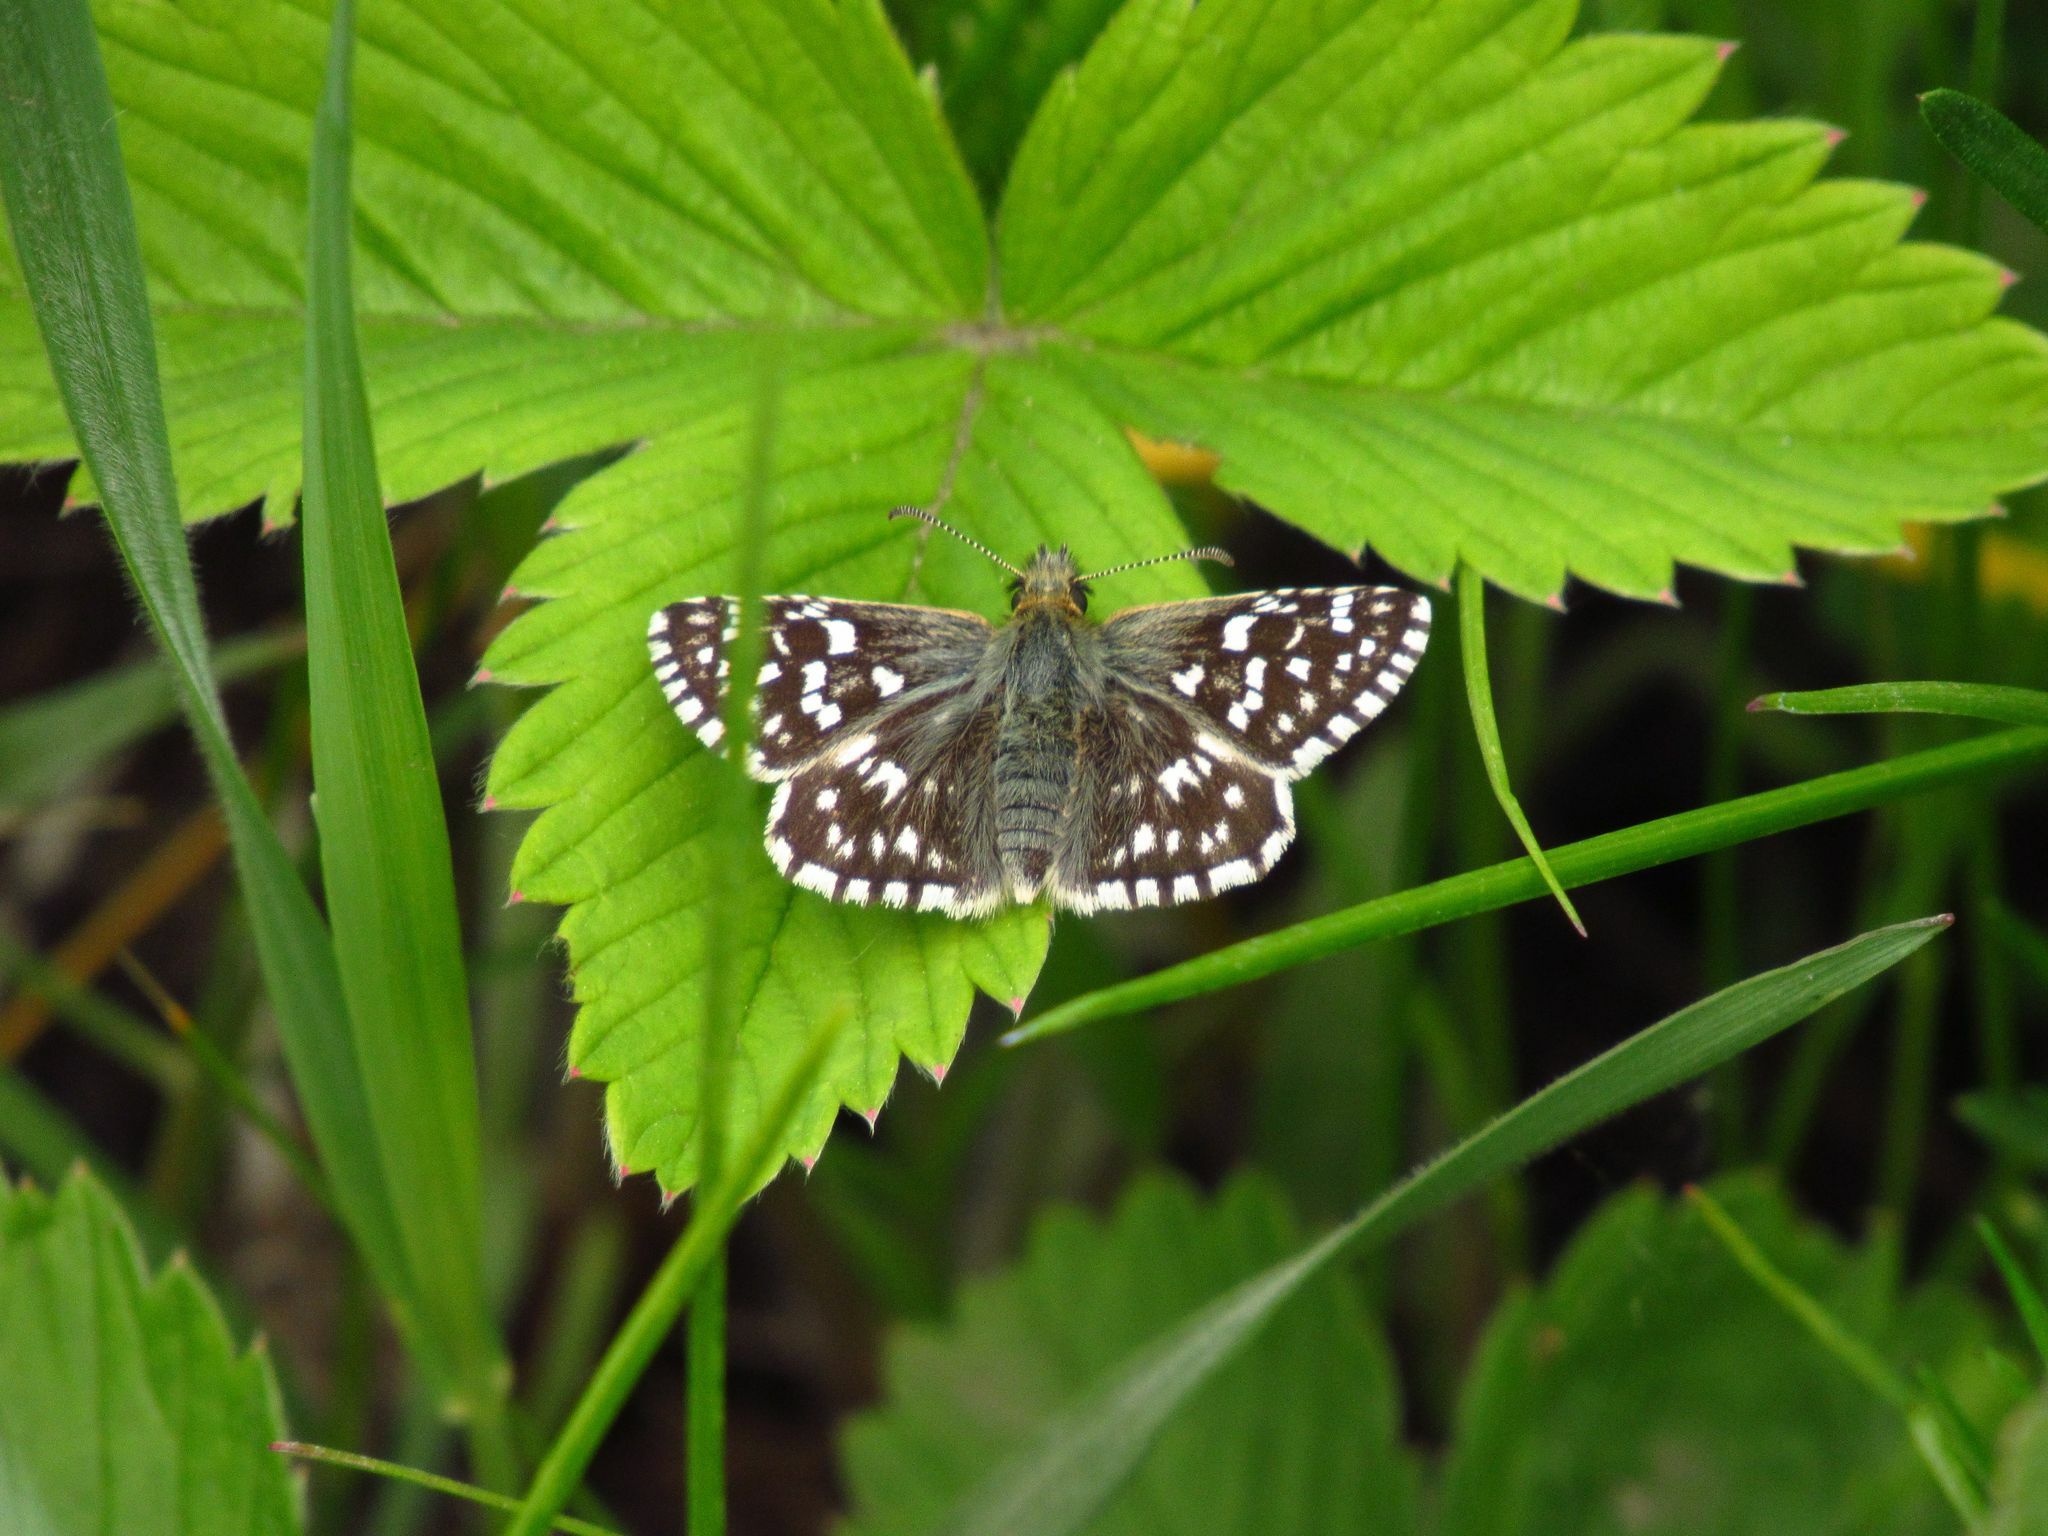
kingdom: Plantae
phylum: Tracheophyta
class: Magnoliopsida
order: Rosales
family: Rosaceae
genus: Fragaria
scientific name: Fragaria viridis
